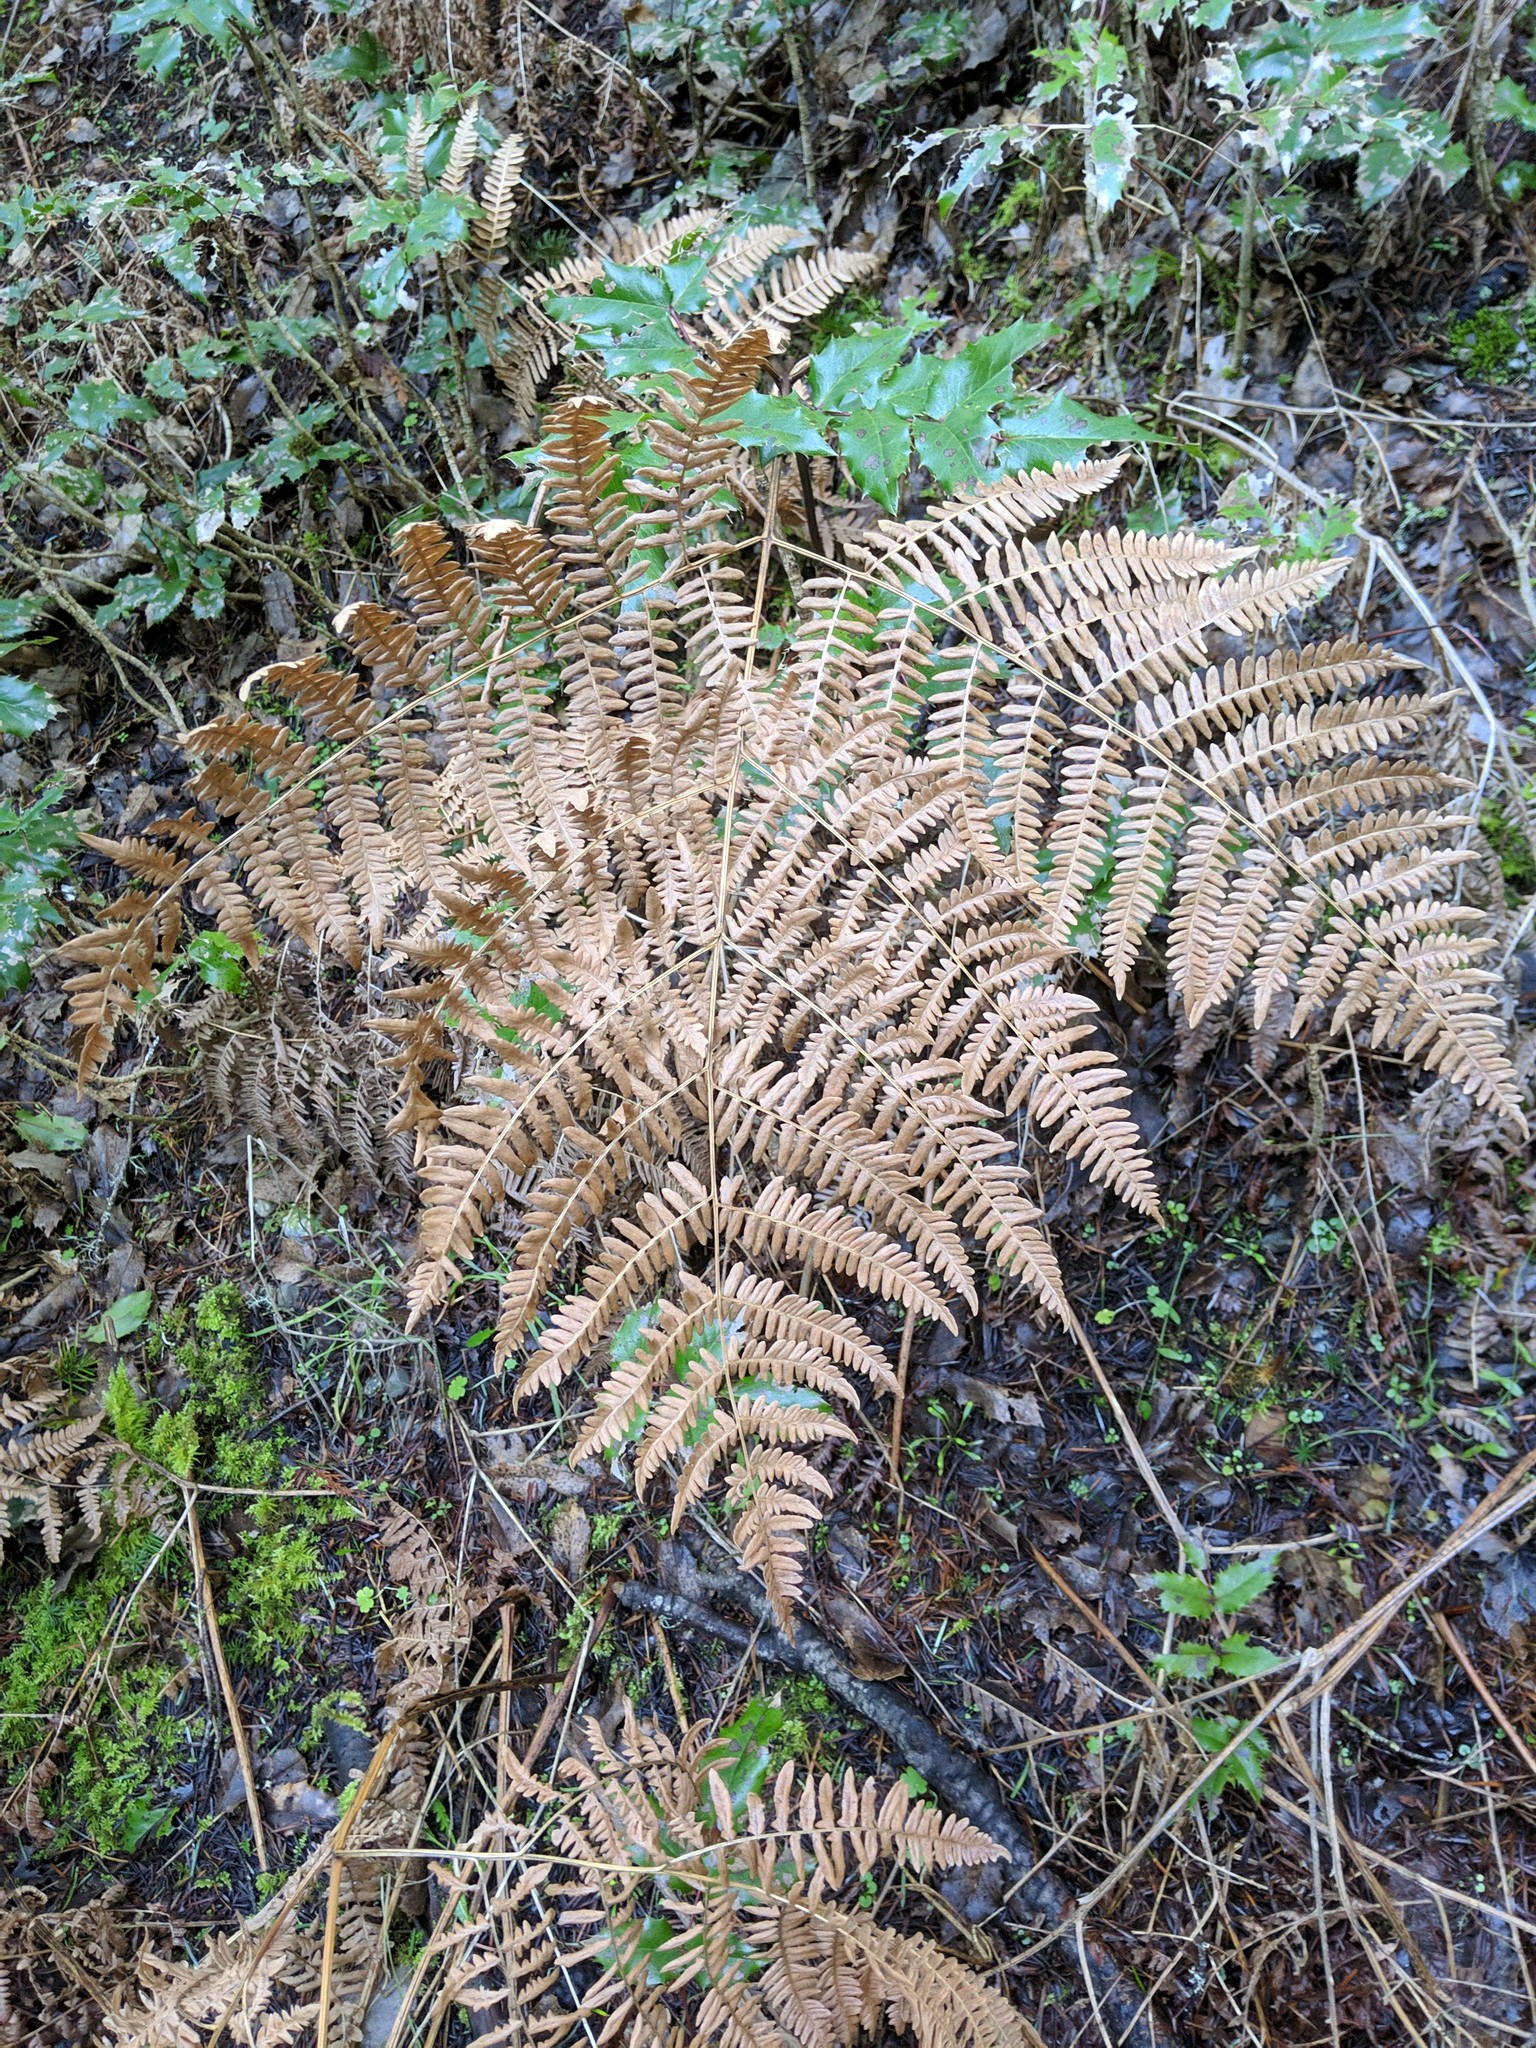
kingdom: Plantae
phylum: Tracheophyta
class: Polypodiopsida
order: Polypodiales
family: Dennstaedtiaceae
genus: Pteridium
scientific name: Pteridium aquilinum
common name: Bracken
